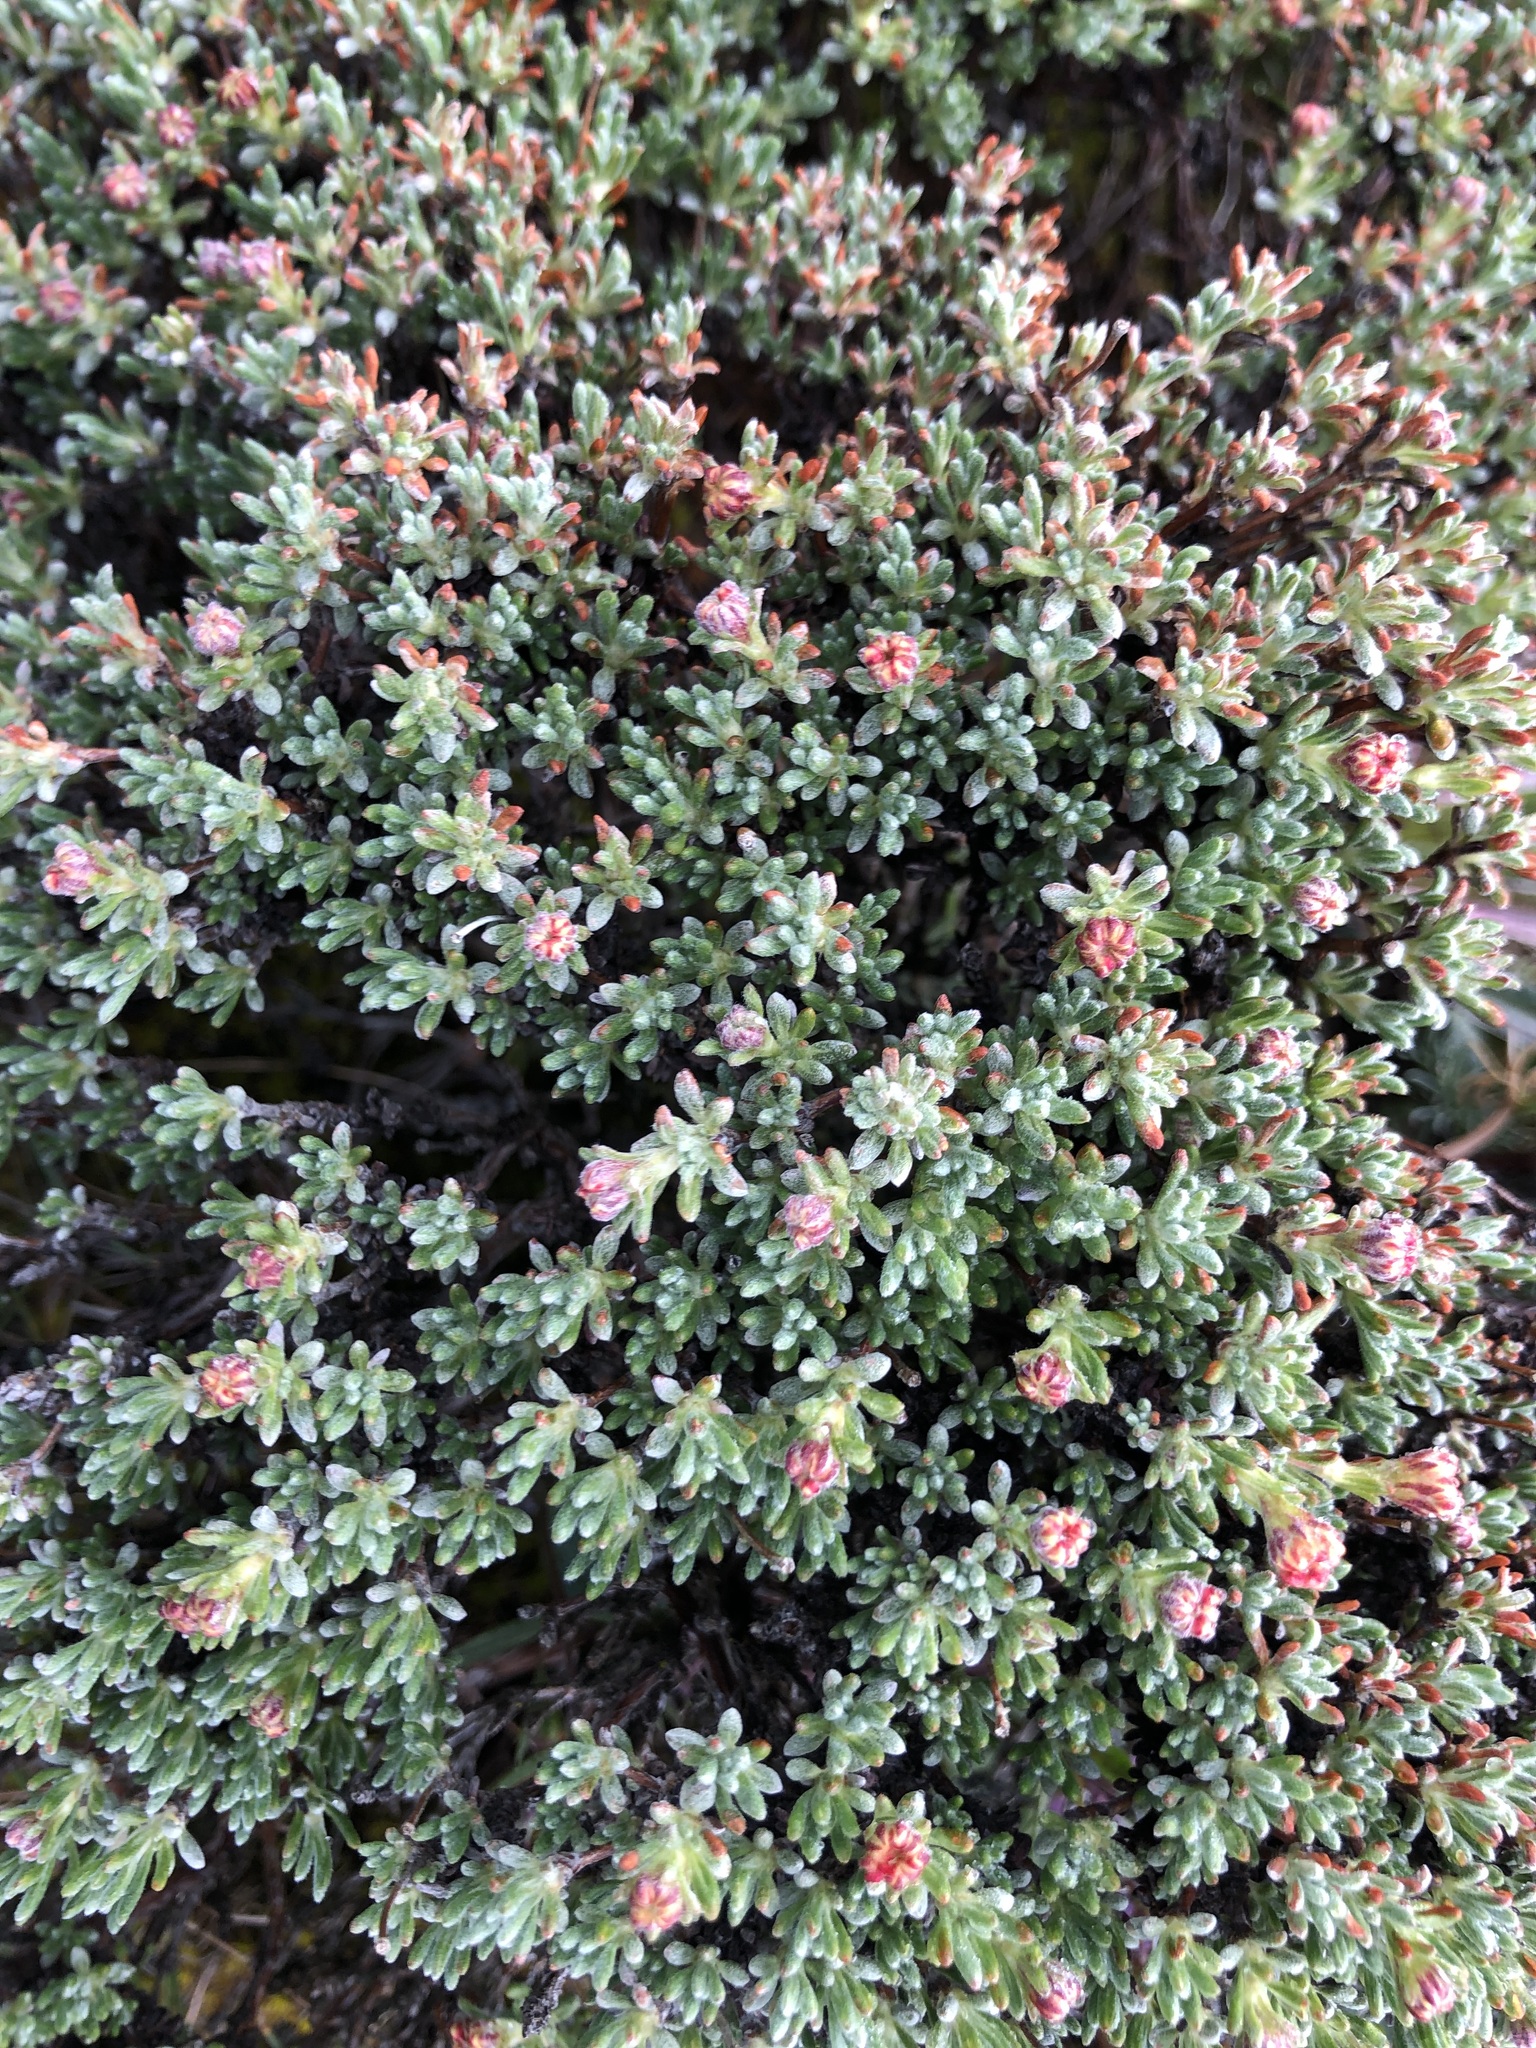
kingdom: Plantae
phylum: Tracheophyta
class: Magnoliopsida
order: Caryophyllales
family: Polygonaceae
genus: Eriogonum
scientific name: Eriogonum thymoides
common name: Thyme-leaf wild buckwheat
